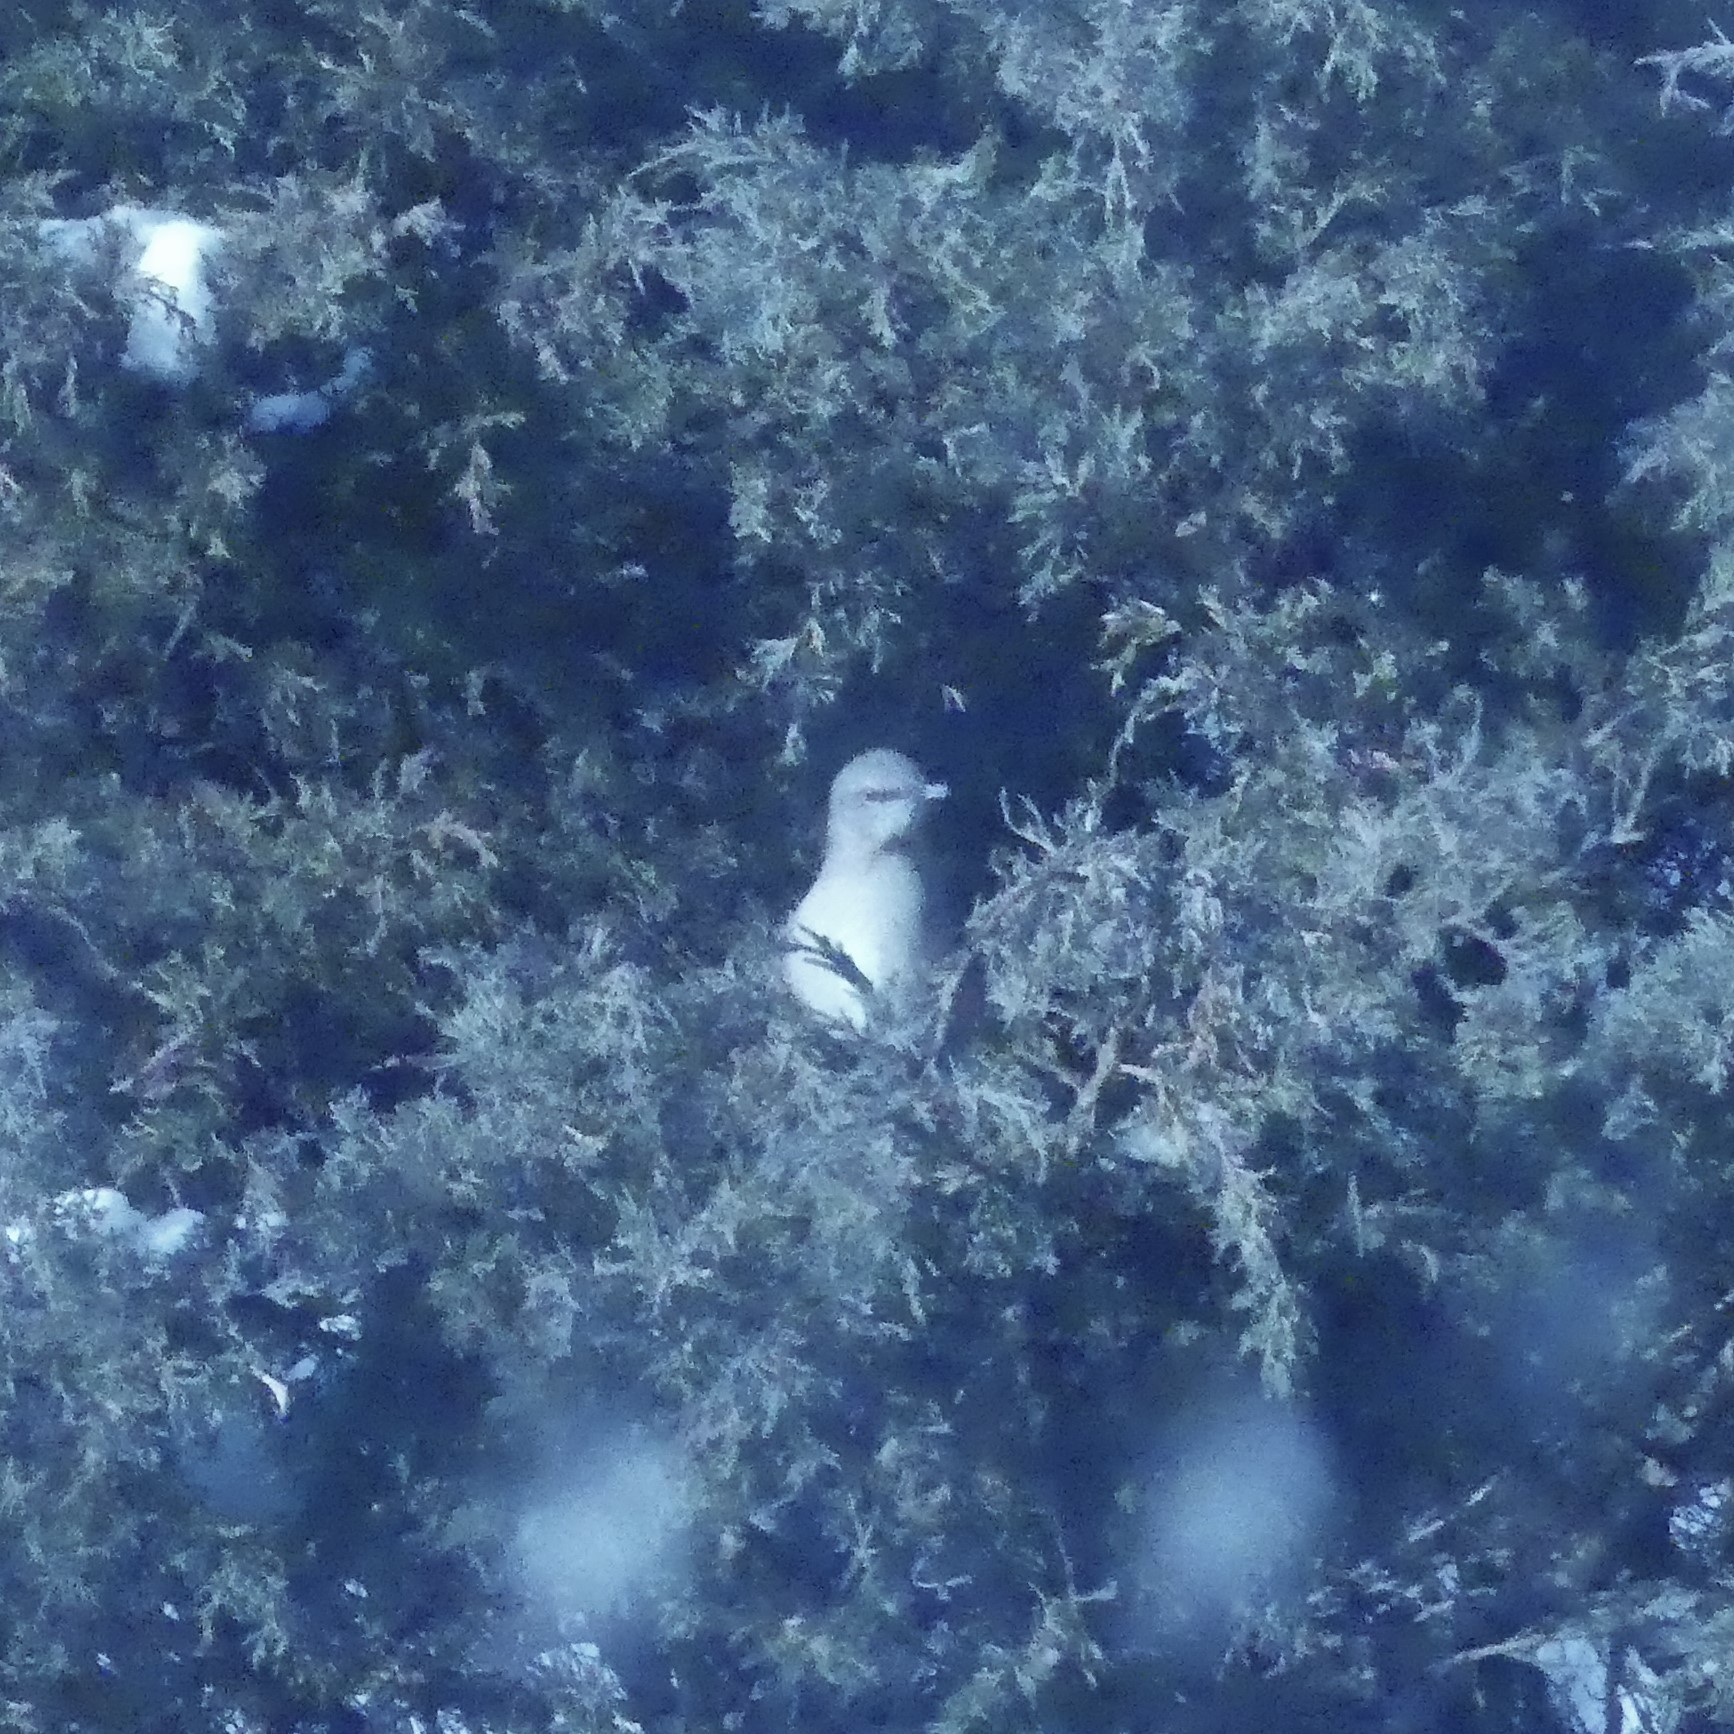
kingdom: Animalia
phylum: Chordata
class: Aves
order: Passeriformes
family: Mimidae
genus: Mimus
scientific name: Mimus polyglottos
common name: Northern mockingbird
